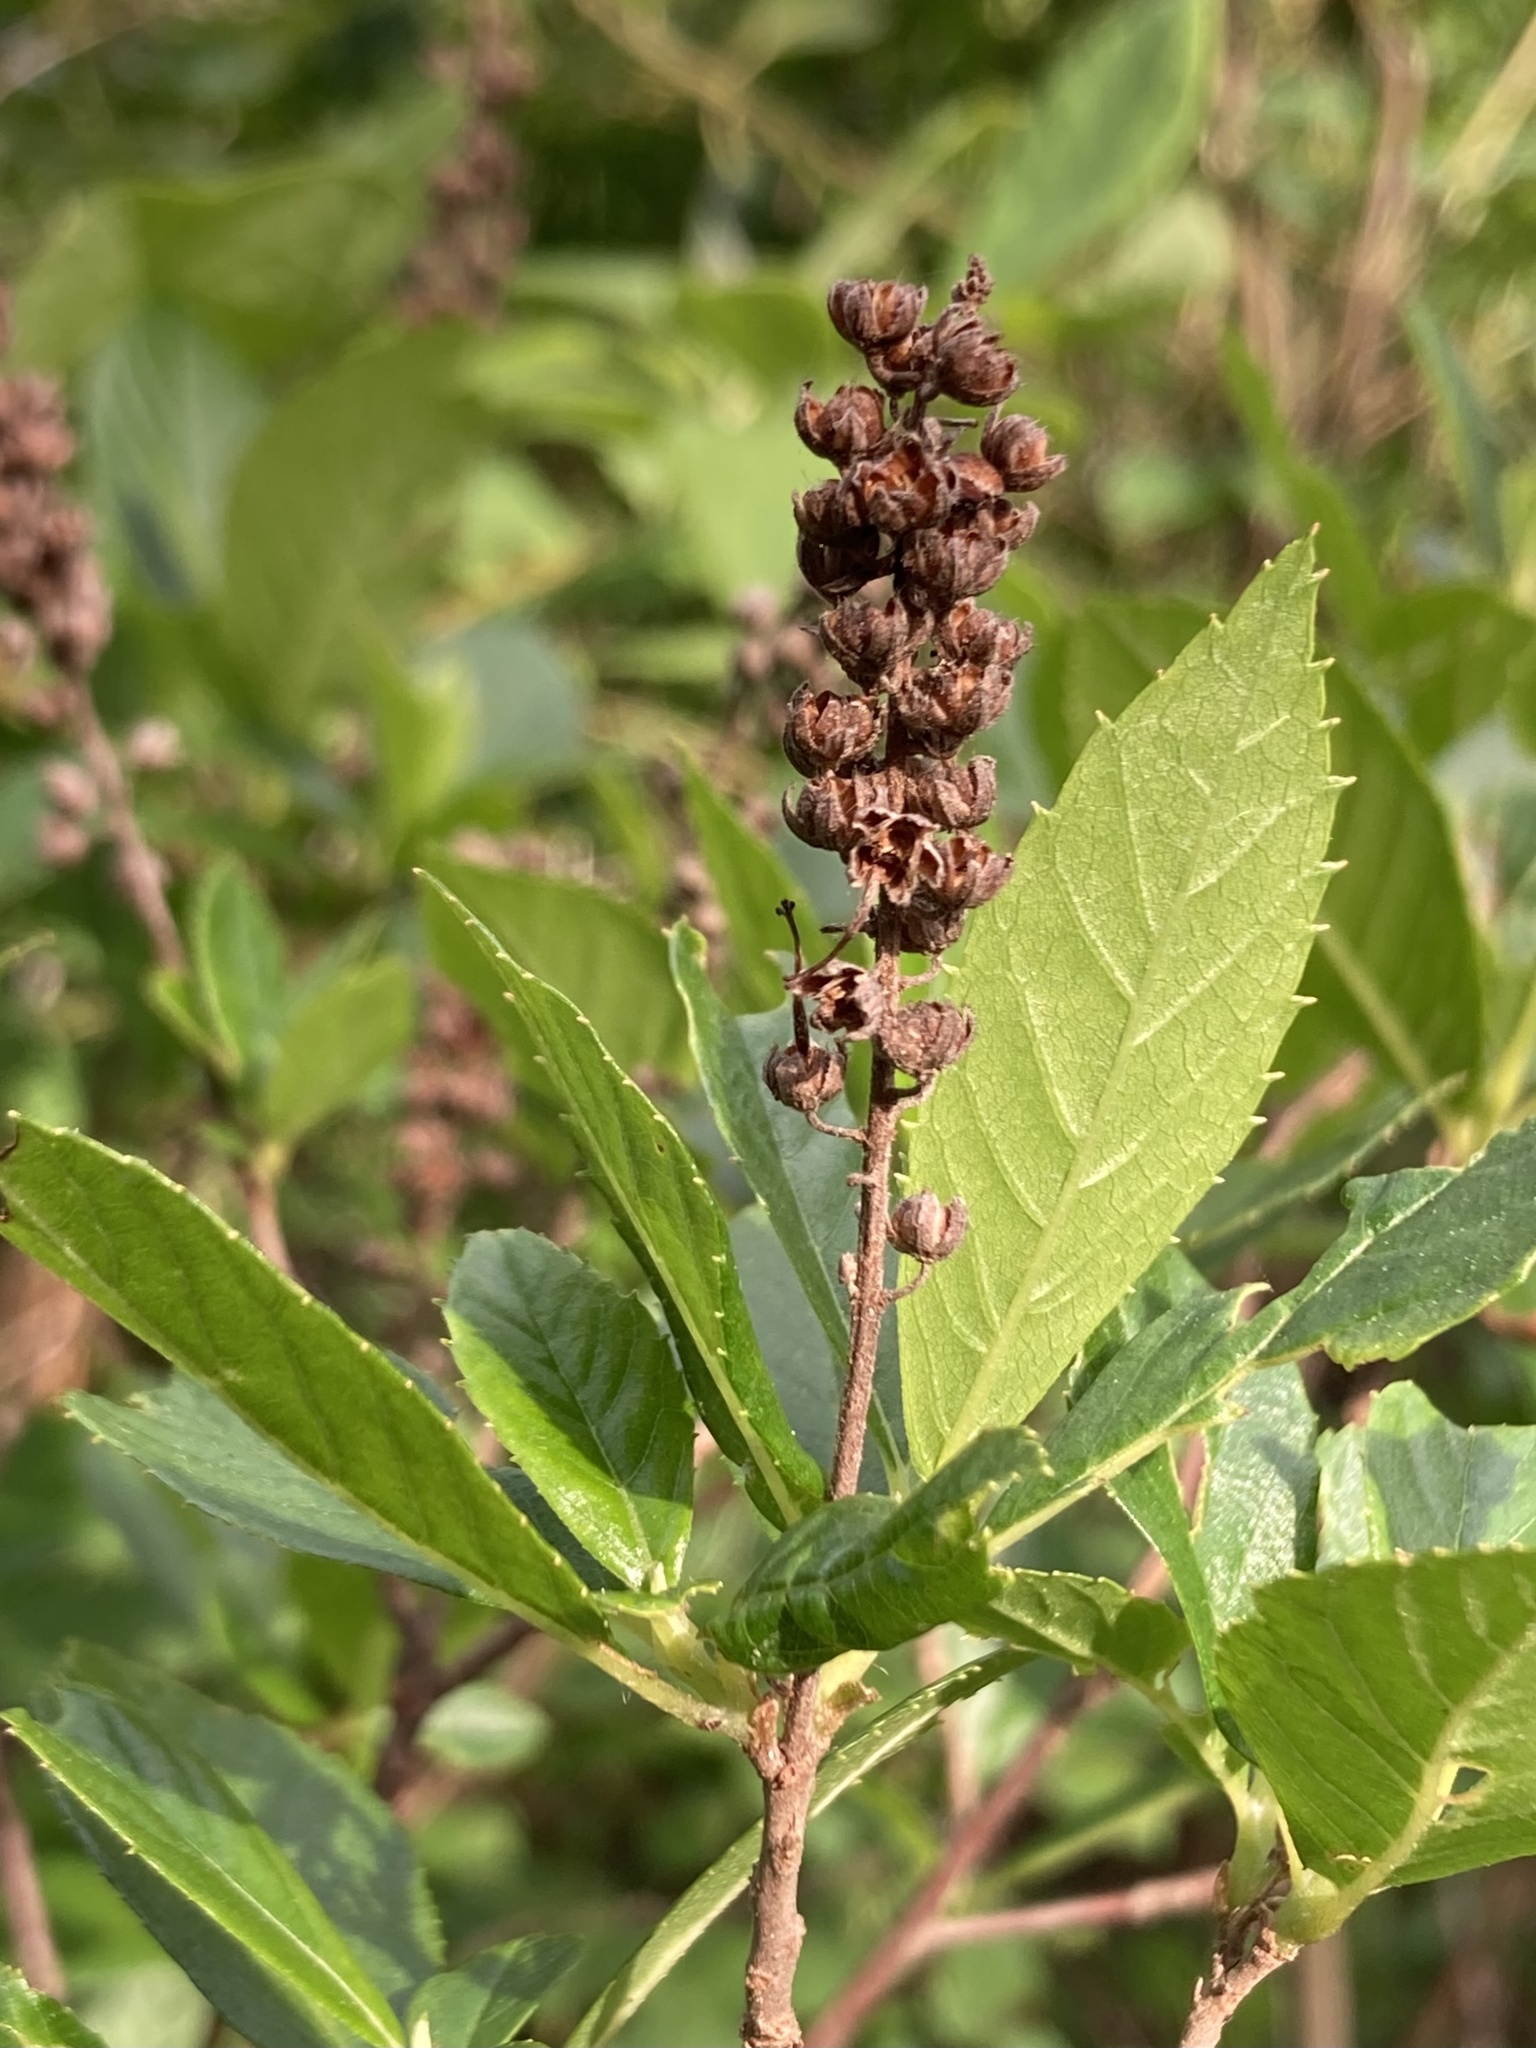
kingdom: Plantae
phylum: Tracheophyta
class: Magnoliopsida
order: Ericales
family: Clethraceae
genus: Clethra
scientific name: Clethra alnifolia
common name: Sweet pepperbush
